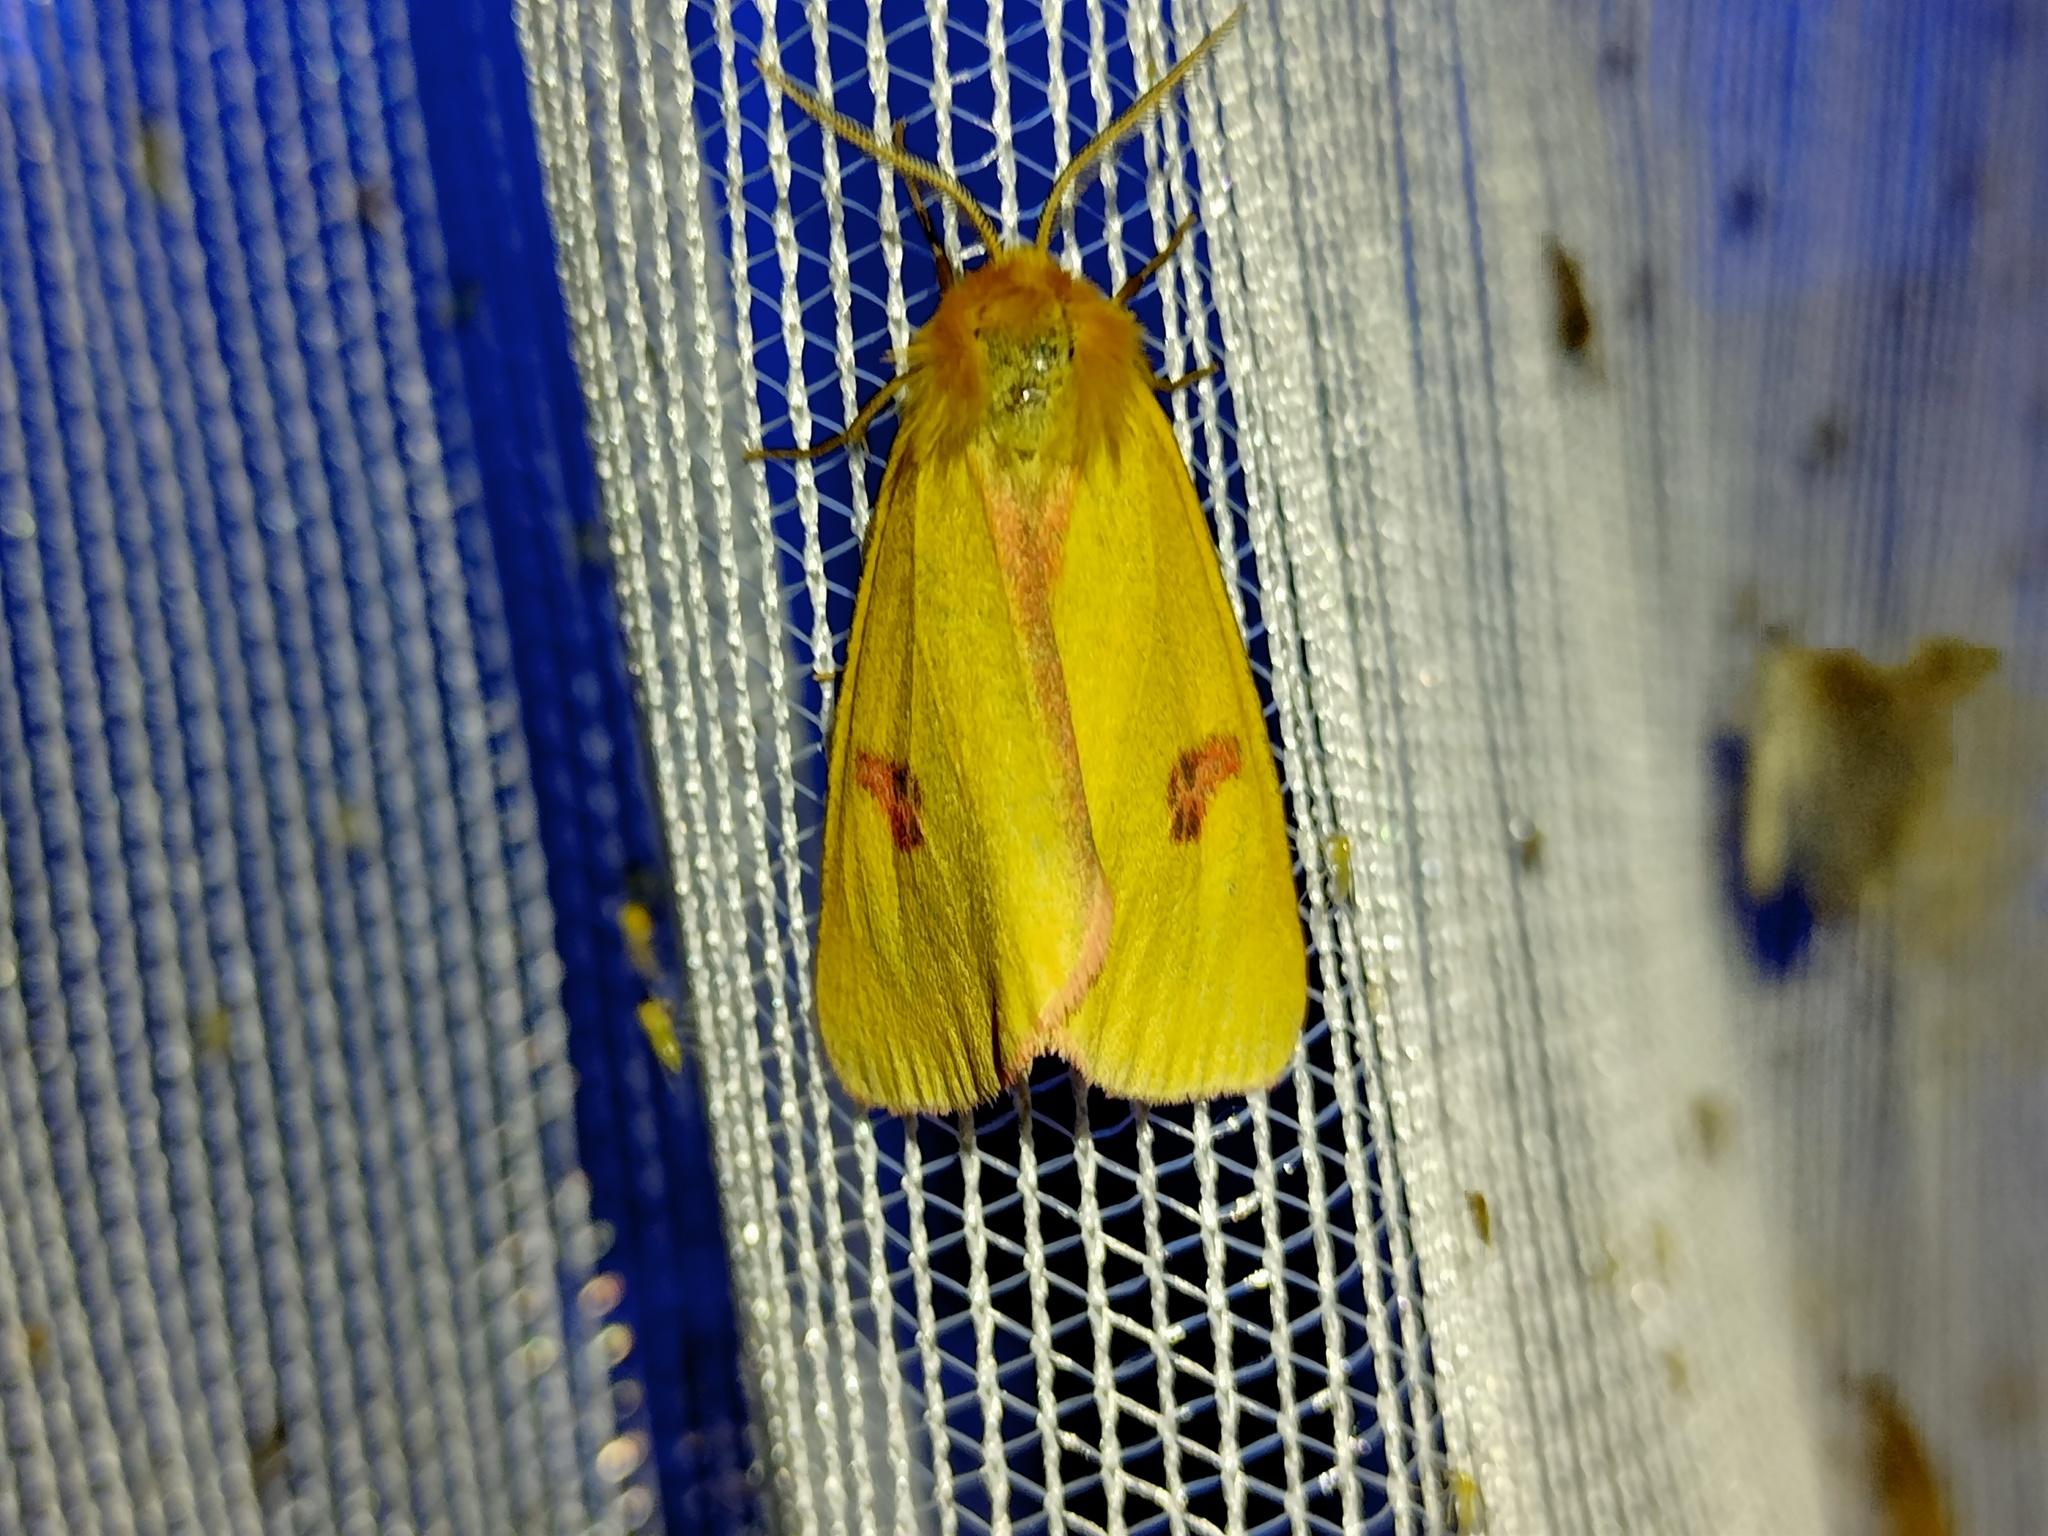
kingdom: Animalia
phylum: Arthropoda
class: Insecta
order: Lepidoptera
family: Erebidae
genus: Diacrisia
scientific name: Diacrisia sannio
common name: Clouded buff
